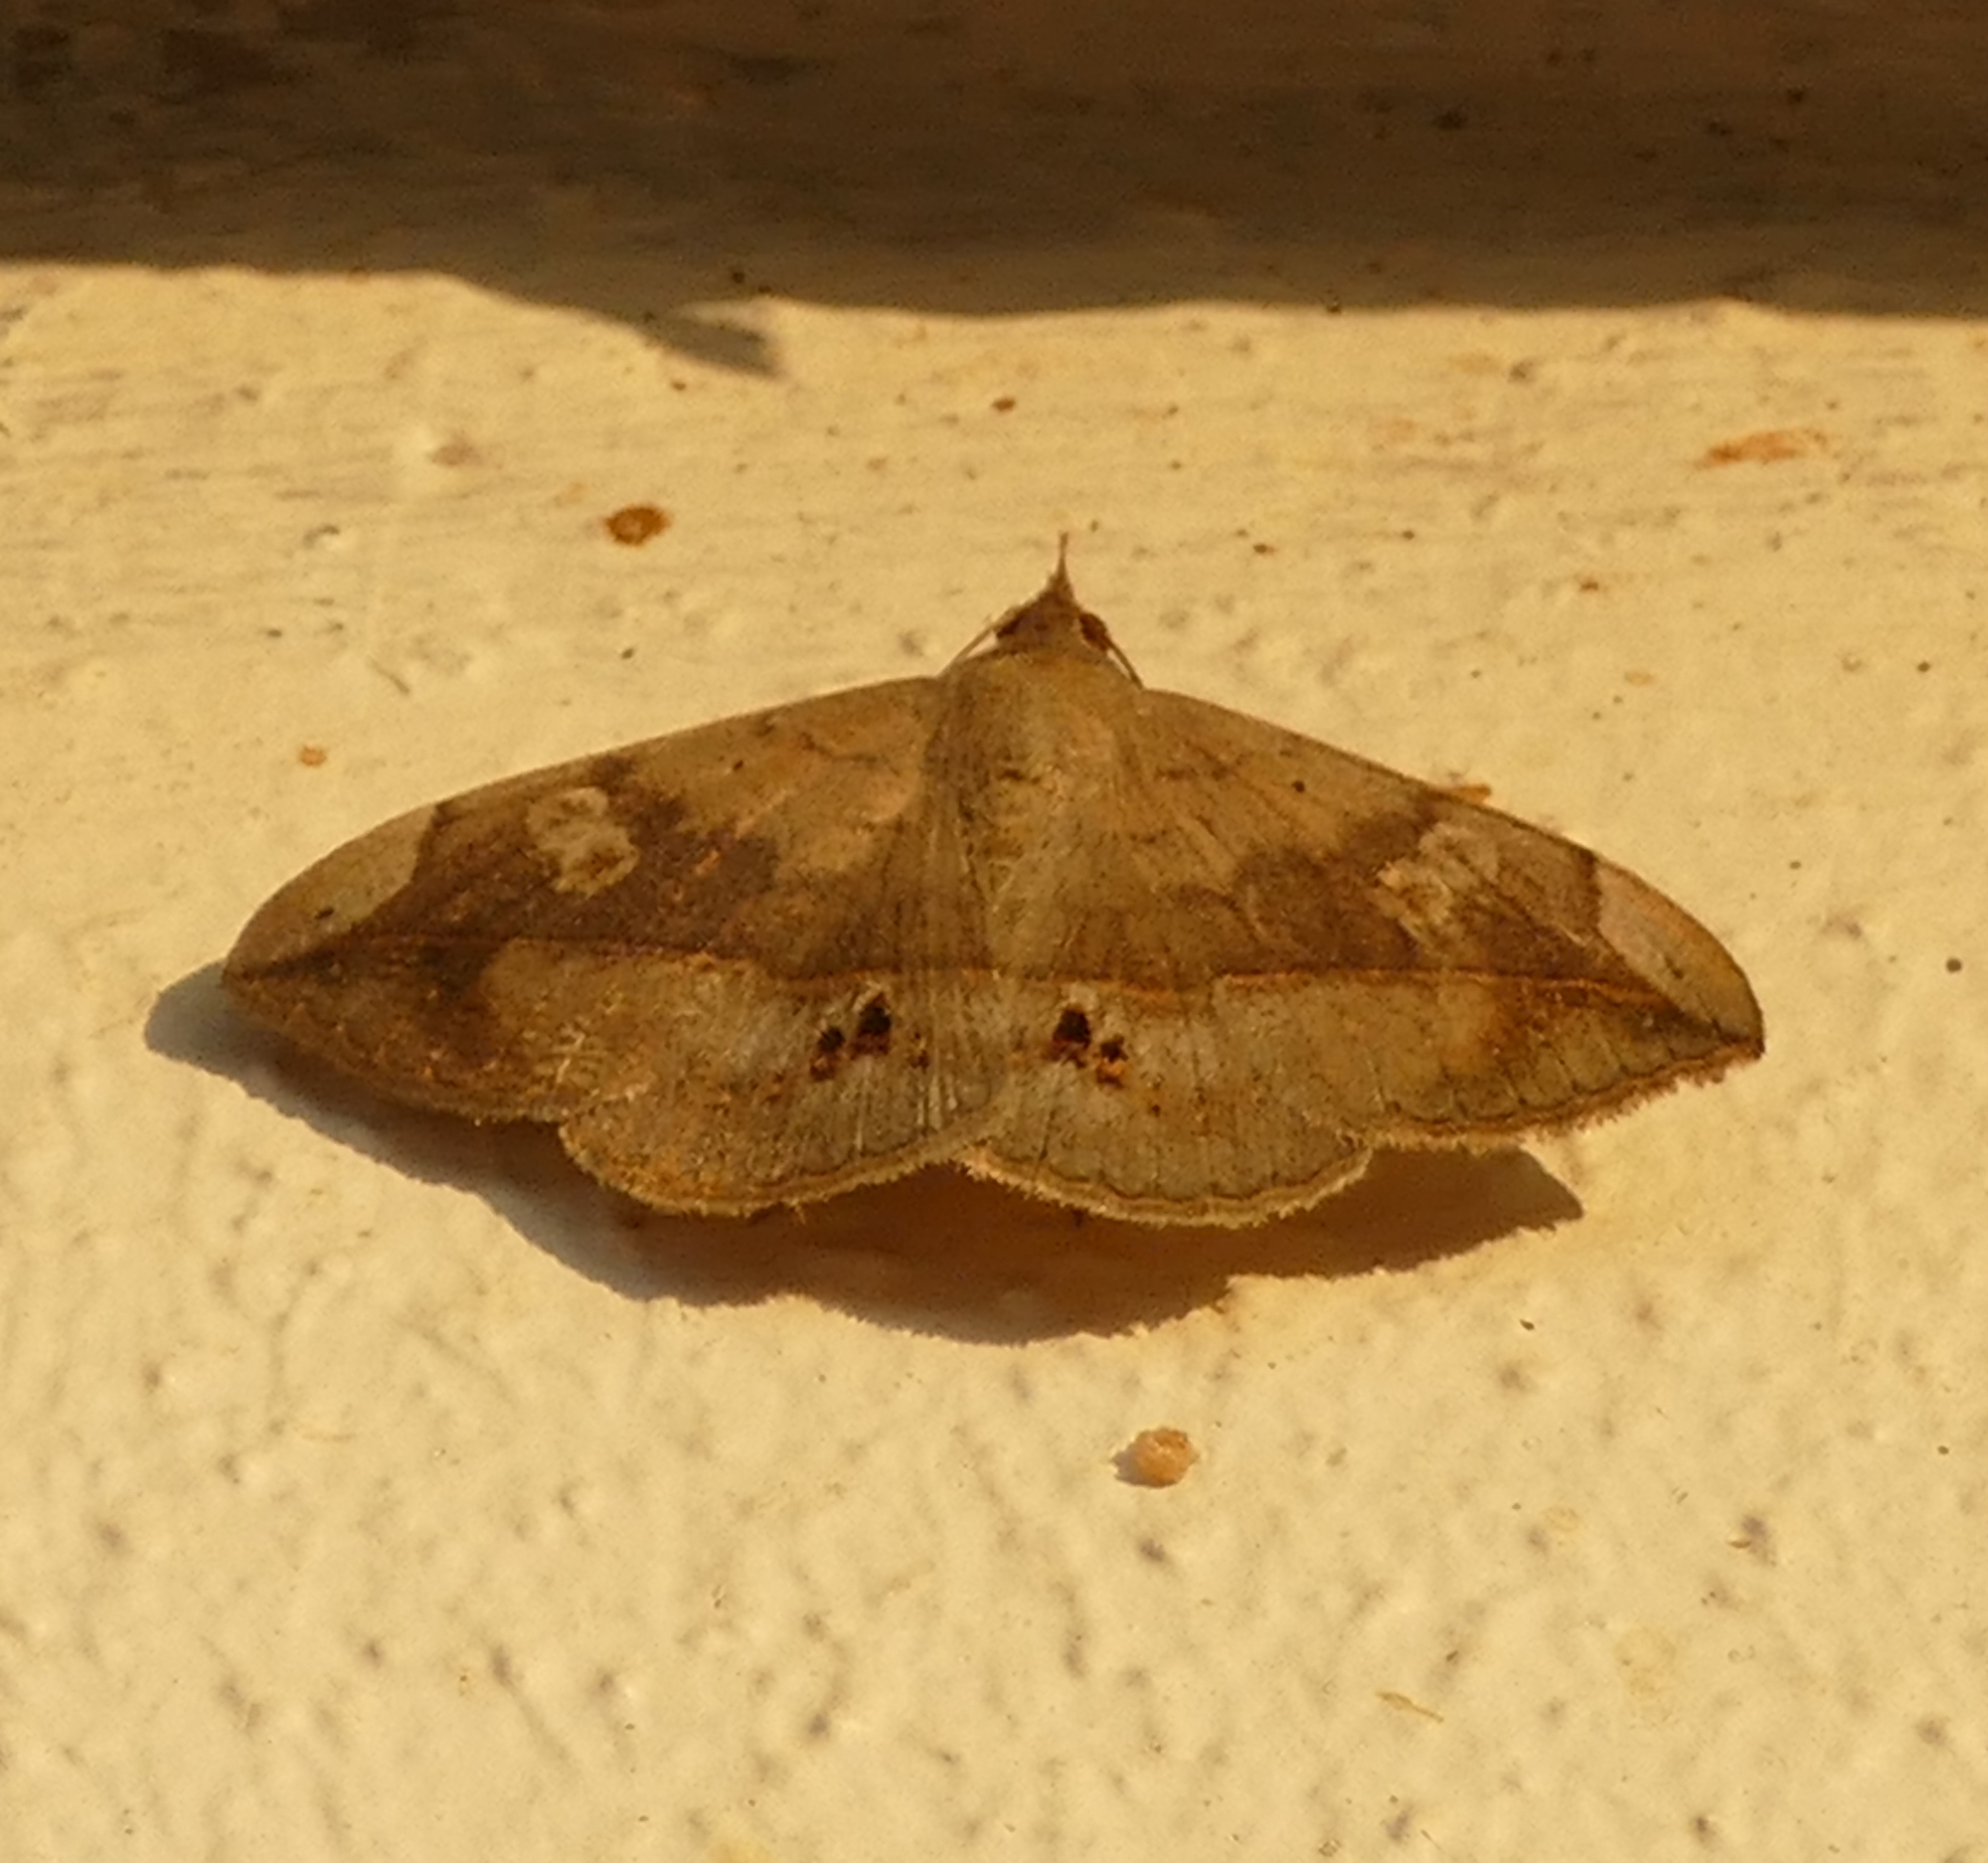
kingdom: Animalia
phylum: Arthropoda
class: Insecta
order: Lepidoptera
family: Erebidae
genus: Anticarsia
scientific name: Anticarsia gemmatalis
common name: Cutworm moth
